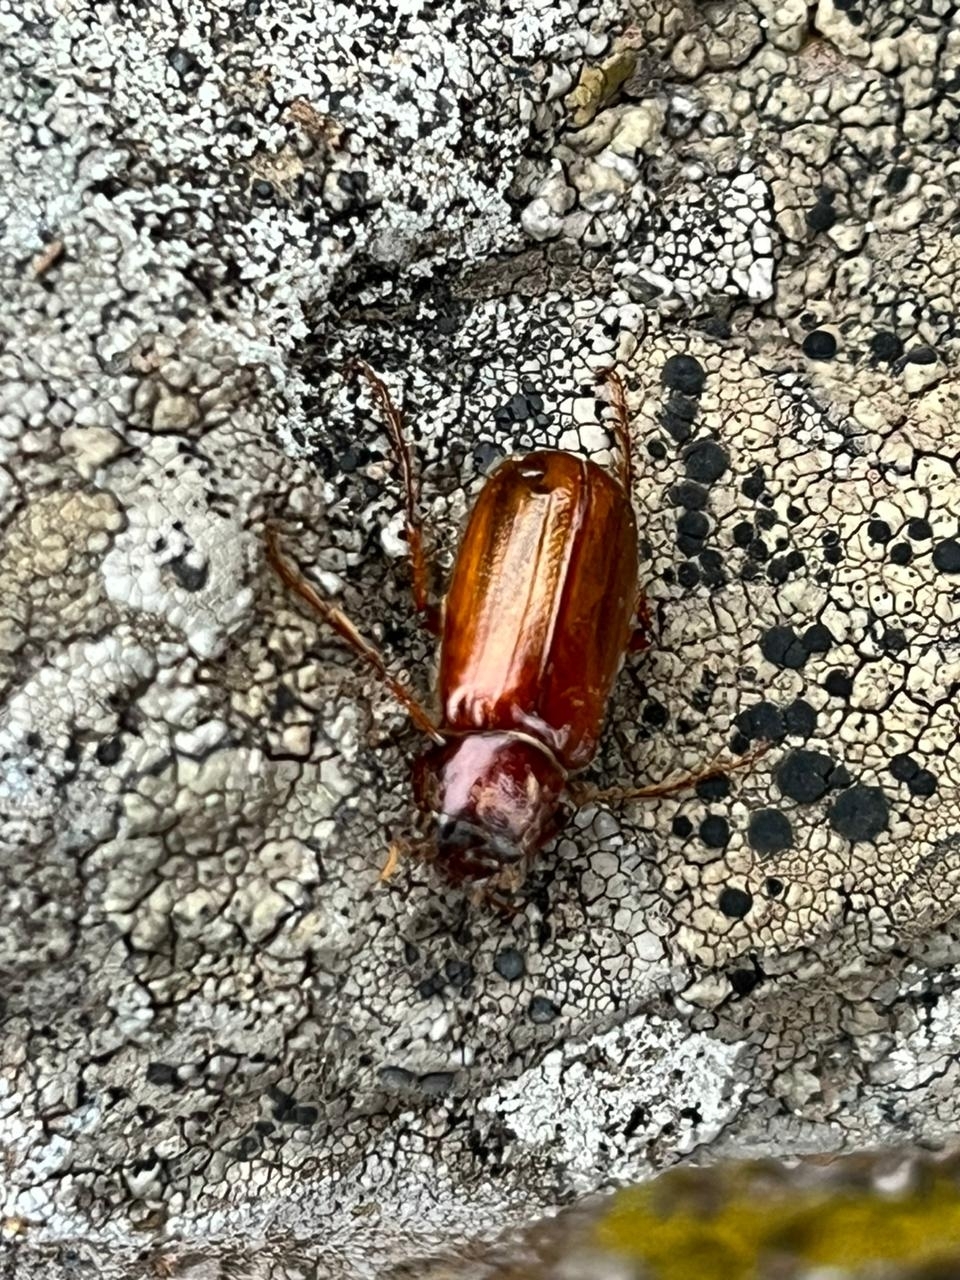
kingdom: Animalia
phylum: Arthropoda
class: Insecta
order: Coleoptera
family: Scarabaeidae
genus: Pacuvia
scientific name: Pacuvia philippiana
